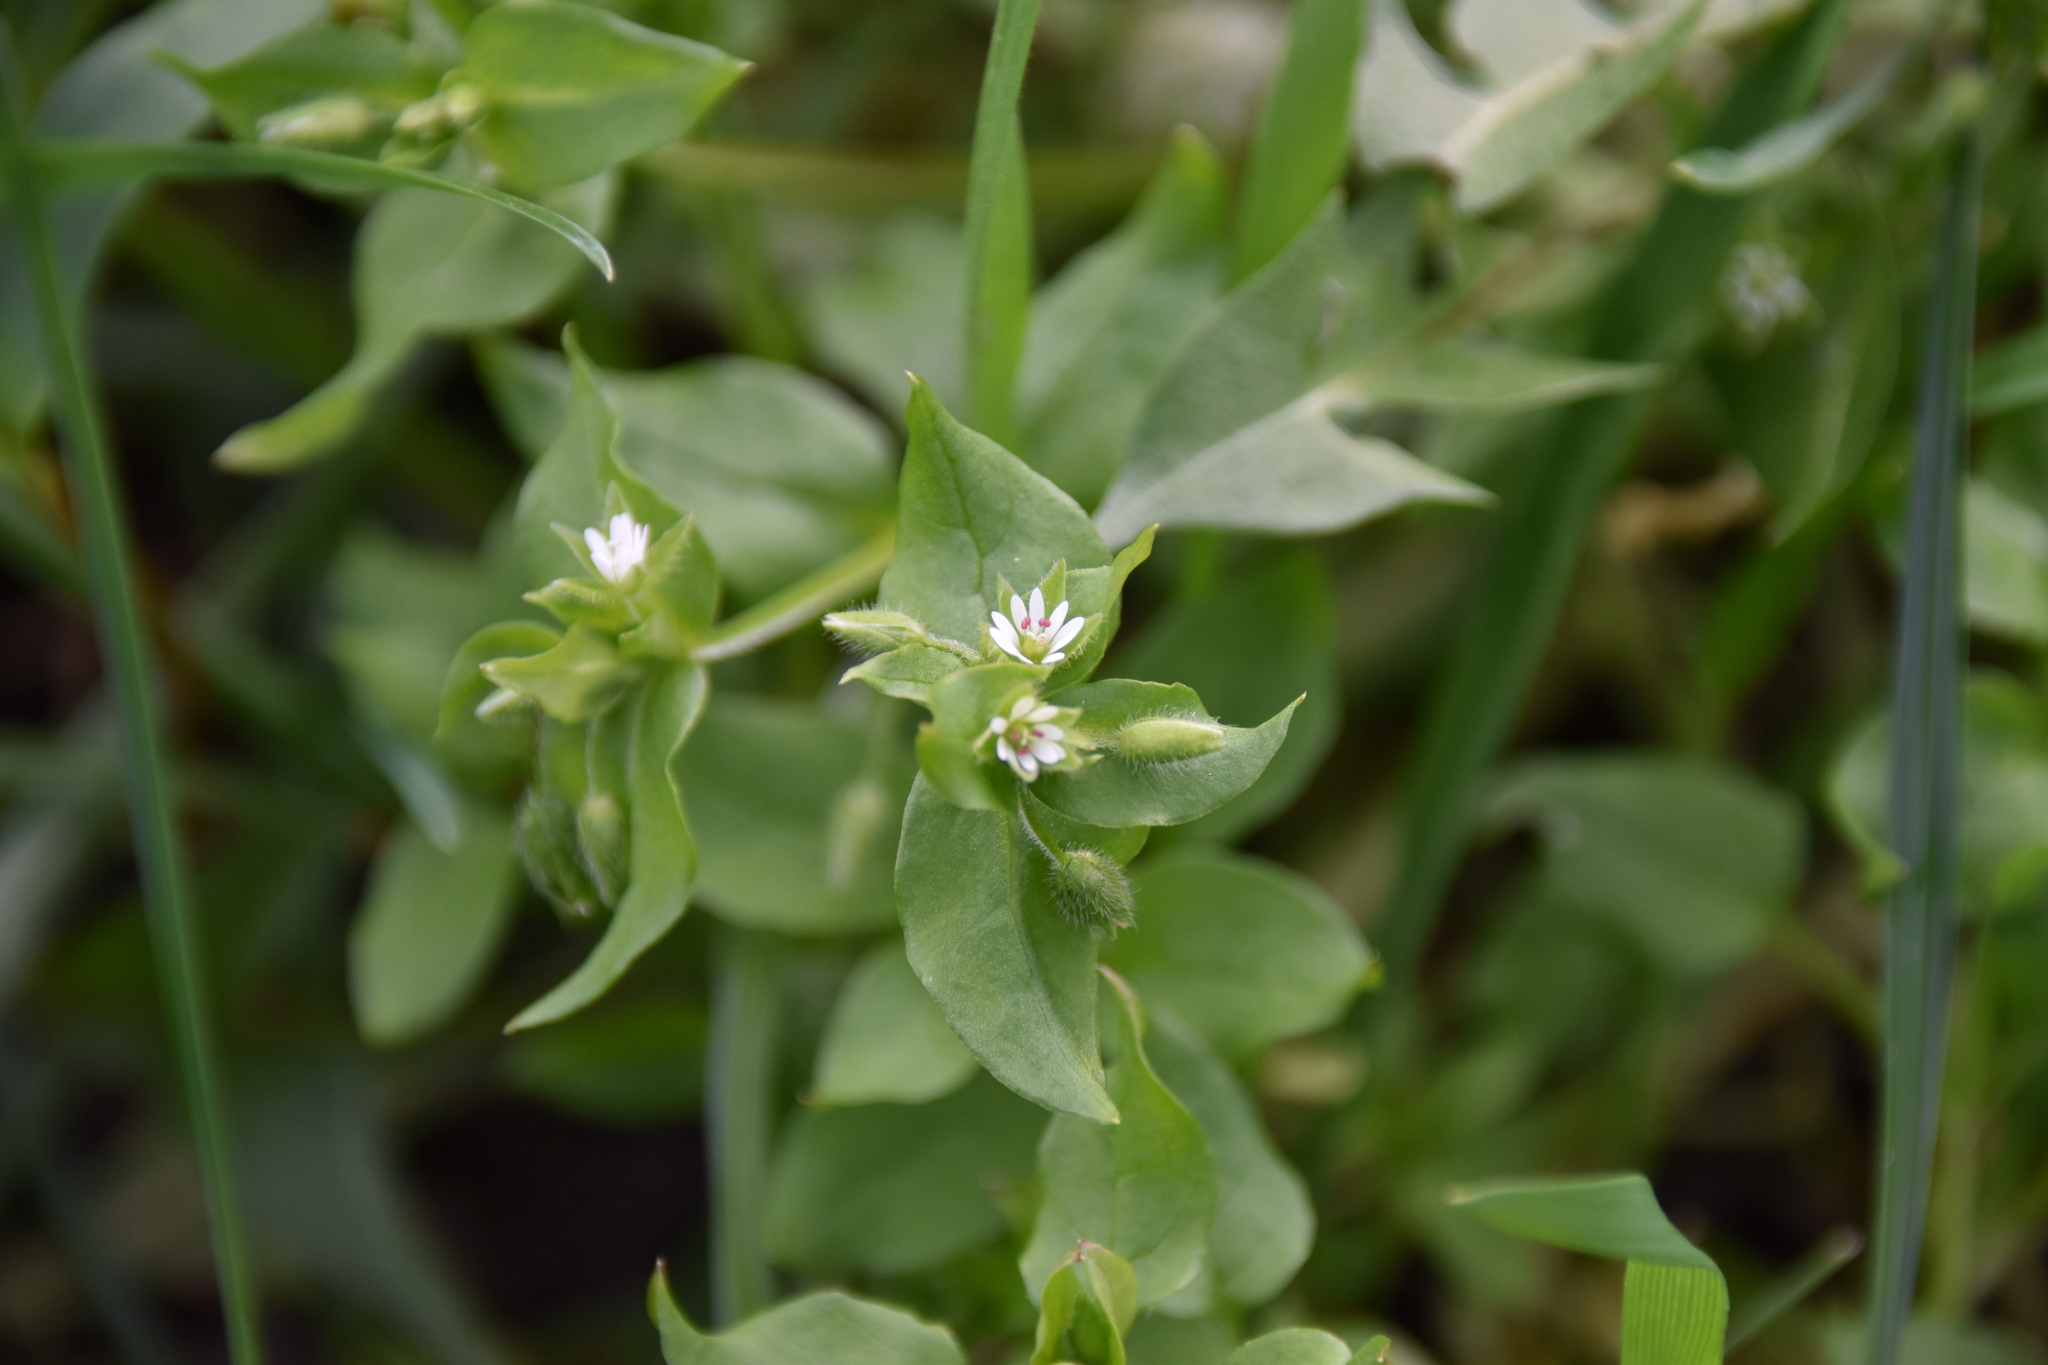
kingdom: Plantae
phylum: Tracheophyta
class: Magnoliopsida
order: Caryophyllales
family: Caryophyllaceae
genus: Stellaria
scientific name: Stellaria media
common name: Common chickweed
